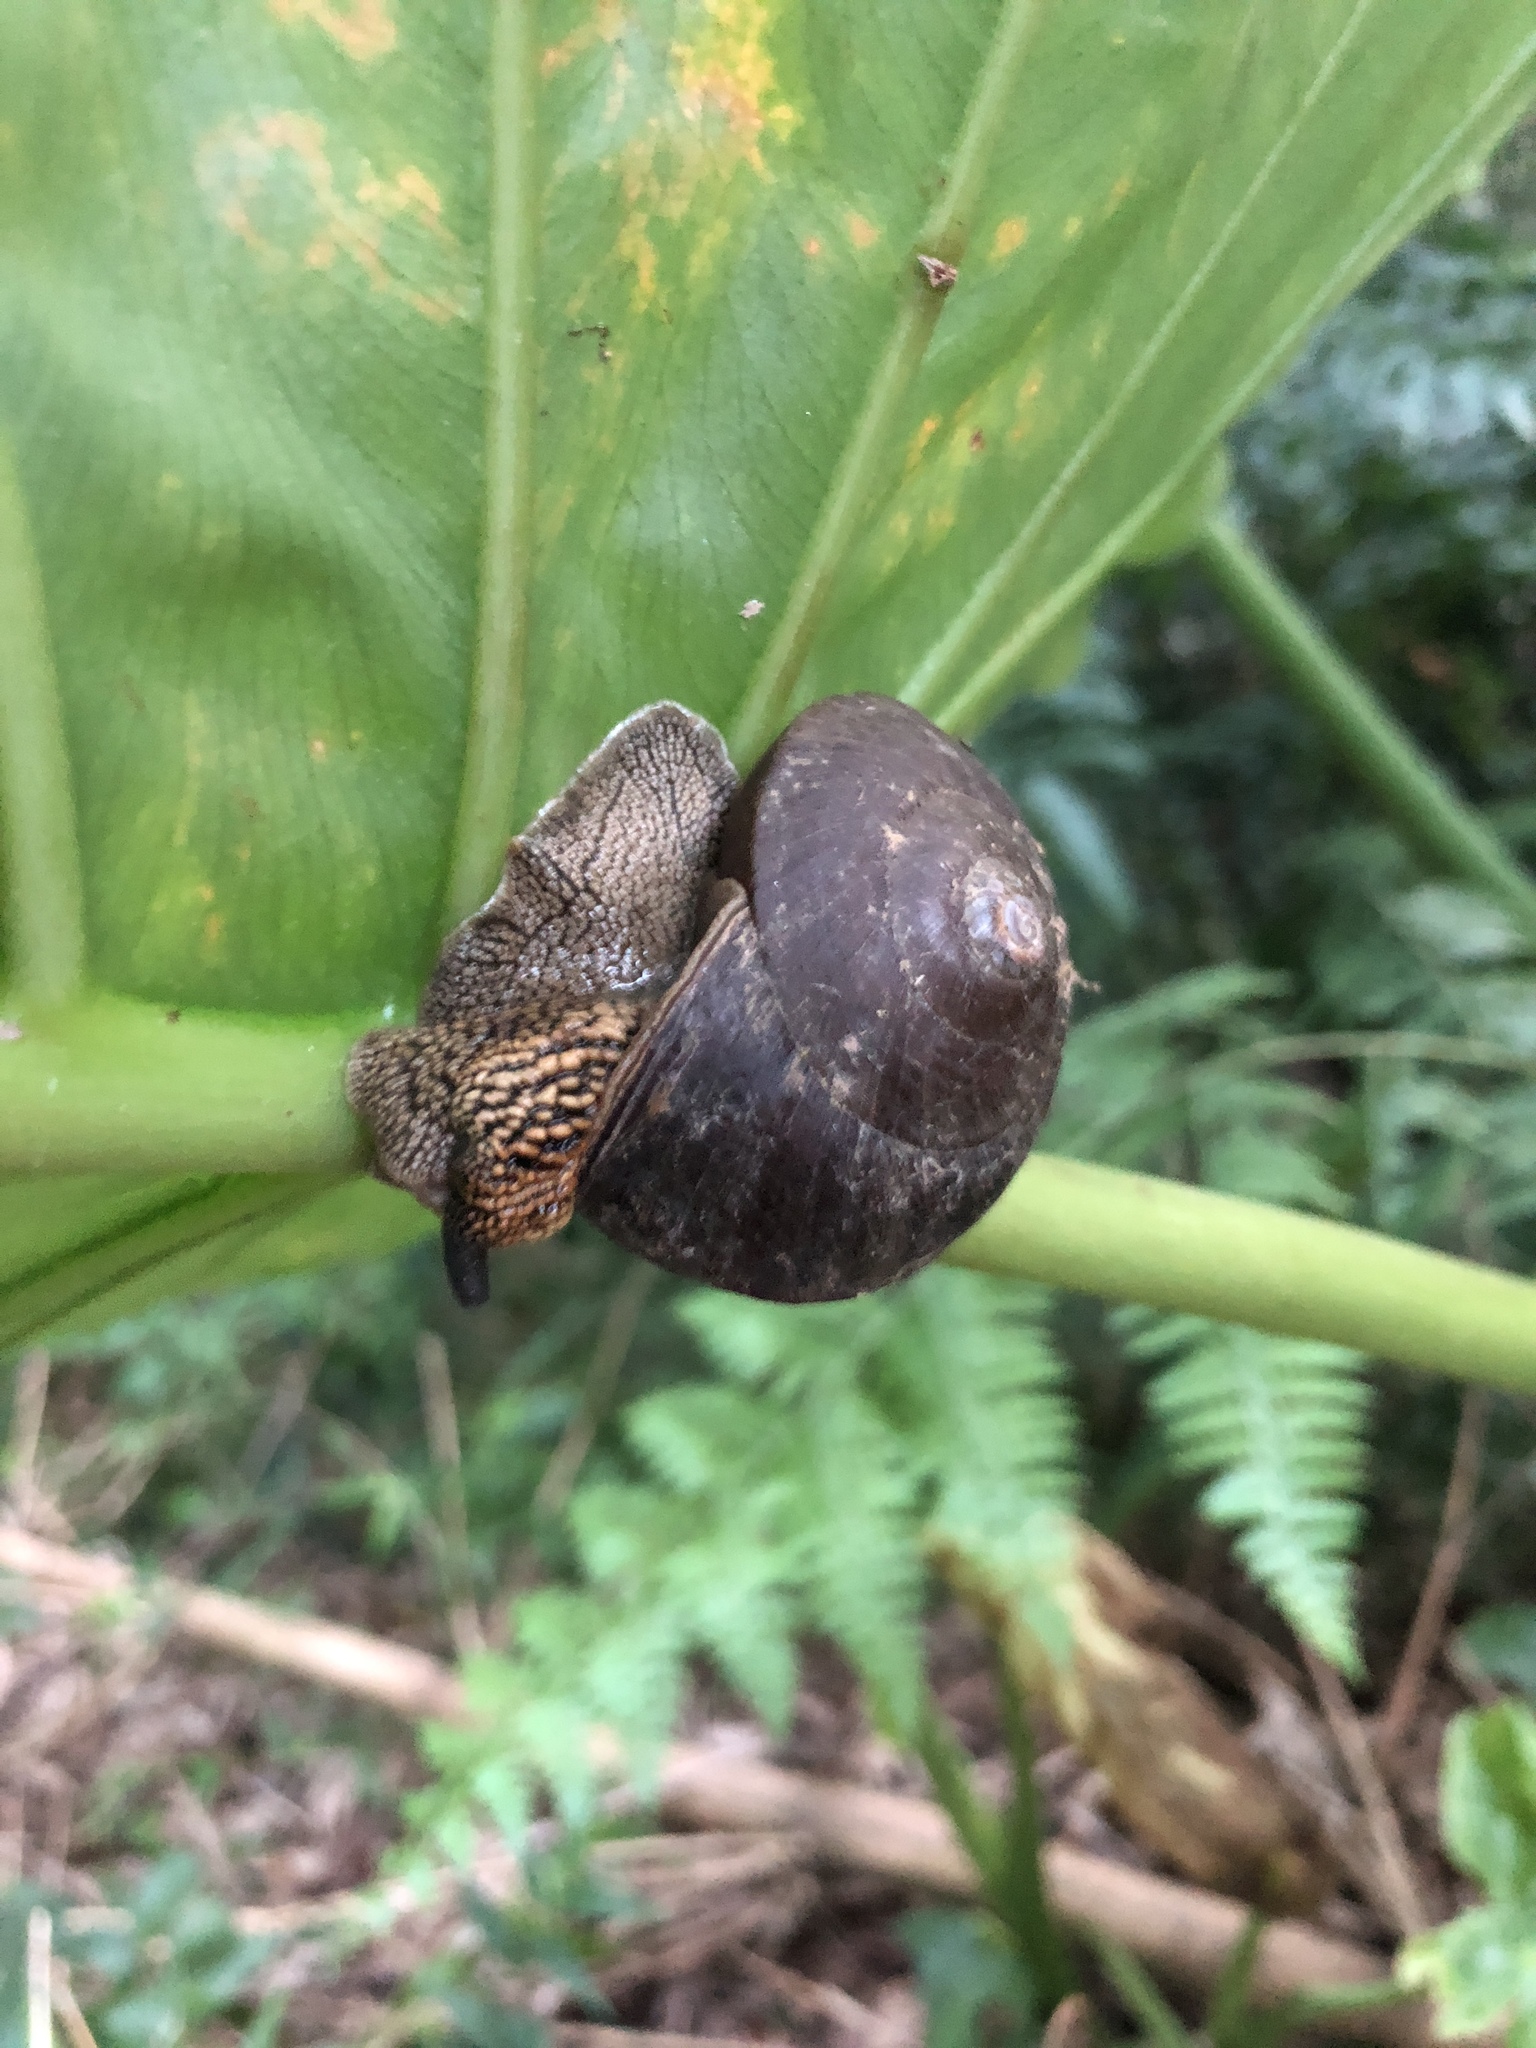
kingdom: Animalia
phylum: Mollusca
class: Gastropoda
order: Stylommatophora
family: Camaenidae
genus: Nesiohelix
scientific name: Nesiohelix swinhoei
